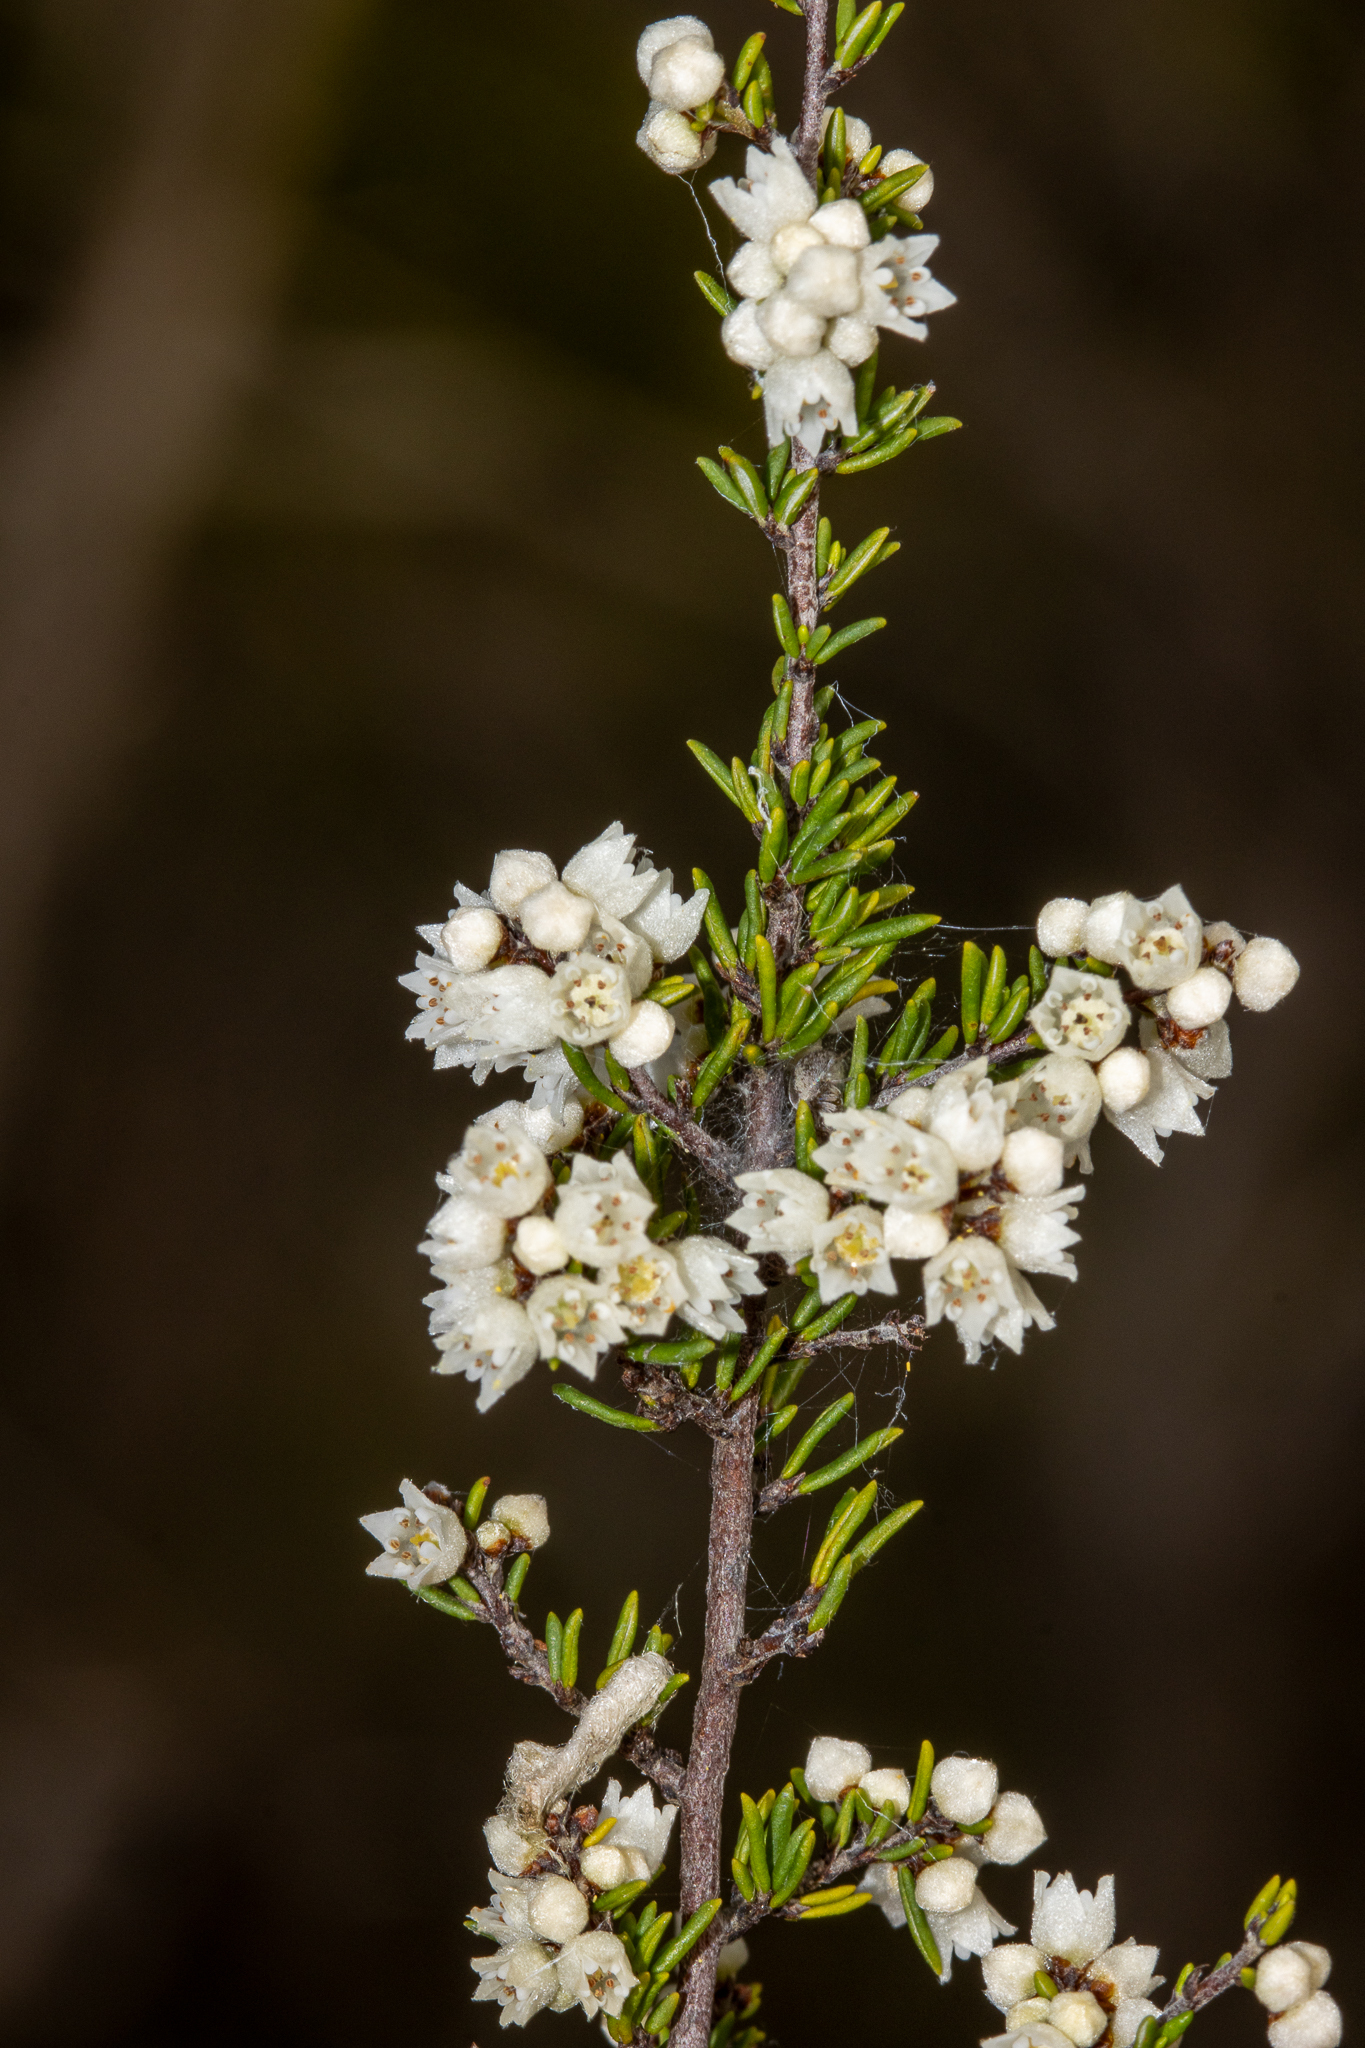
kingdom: Plantae
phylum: Tracheophyta
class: Magnoliopsida
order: Rosales
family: Rhamnaceae
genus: Cryptandra
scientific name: Cryptandra tomentosa
